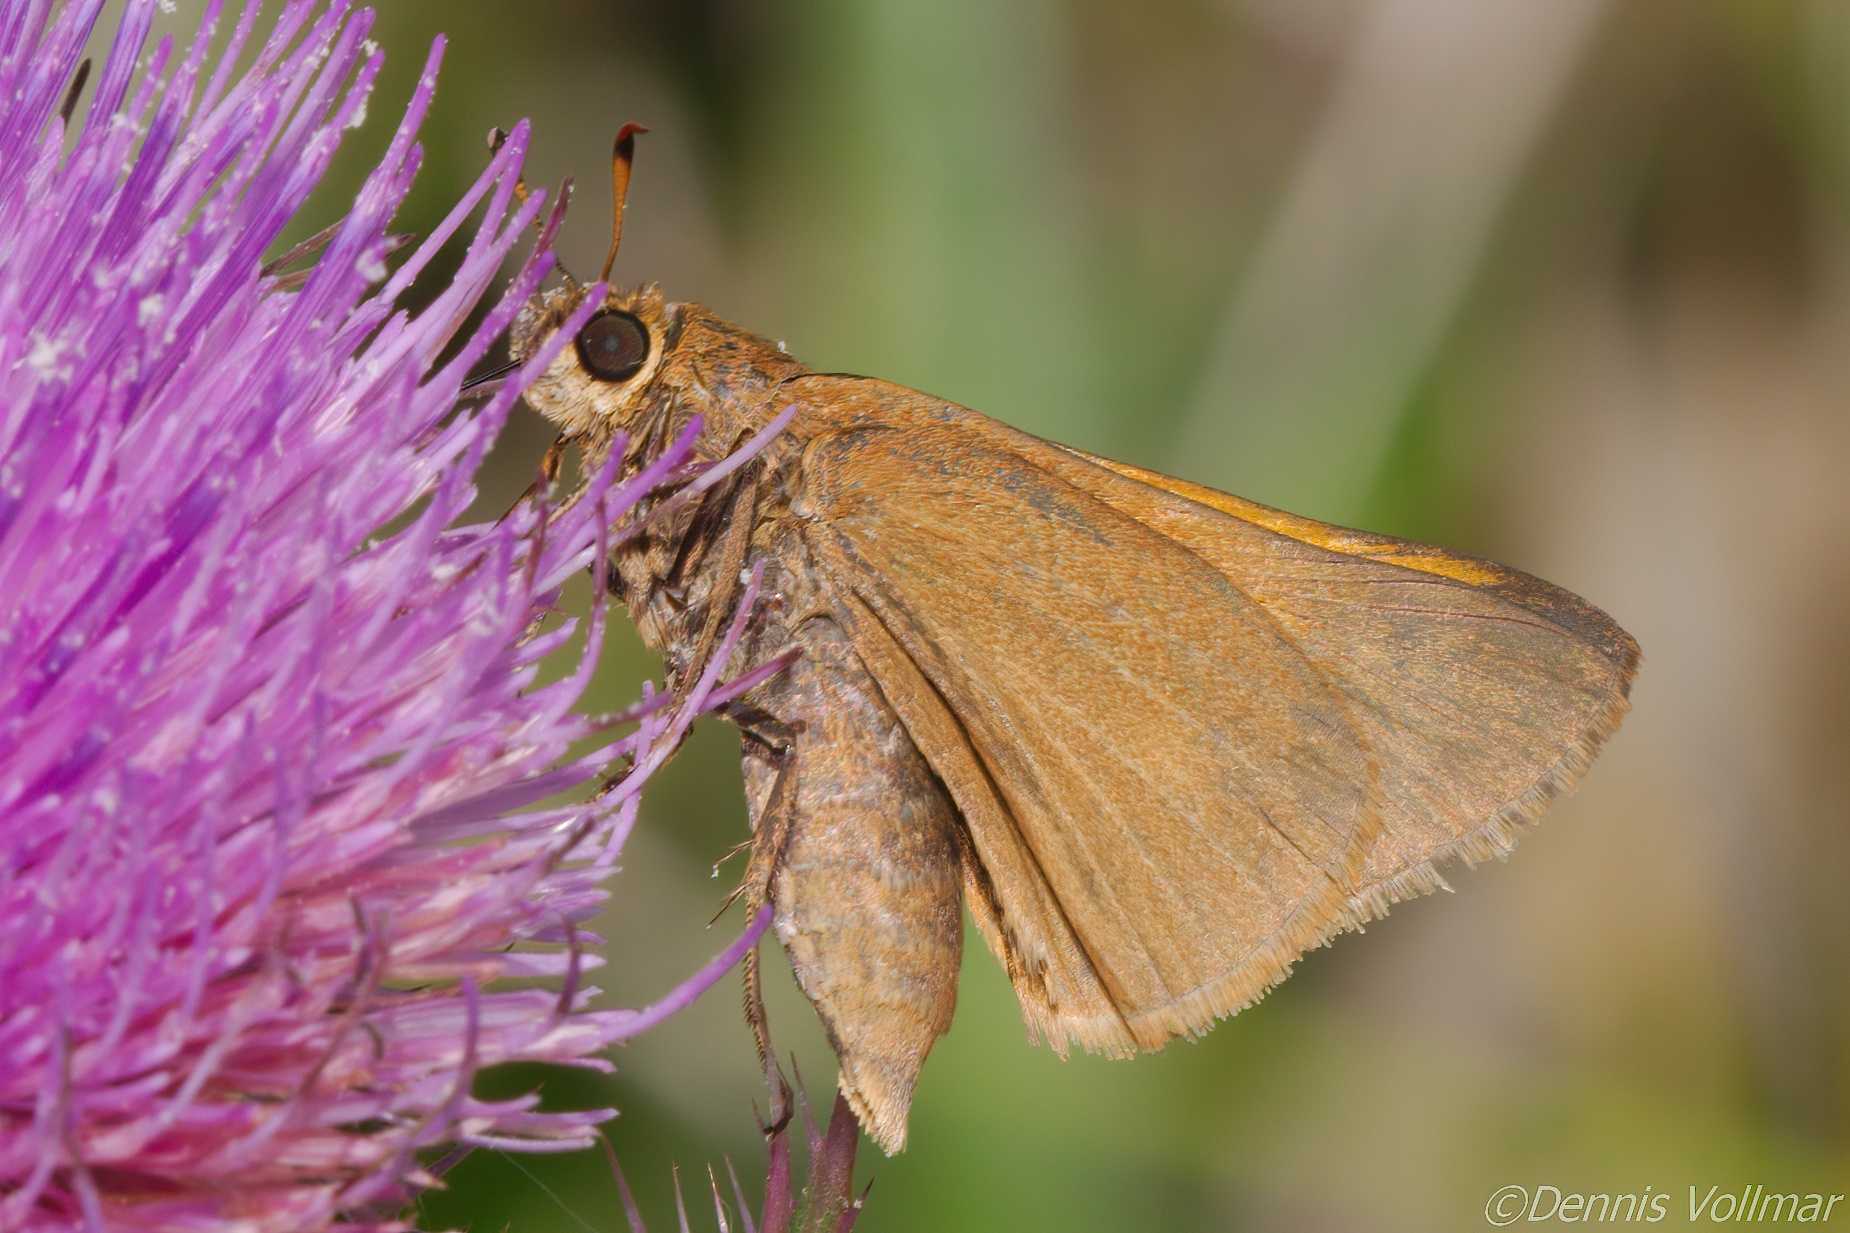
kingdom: Animalia
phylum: Arthropoda
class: Insecta
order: Lepidoptera
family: Hesperiidae
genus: Euphyes
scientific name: Euphyes pilatka
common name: Palatka skipper
